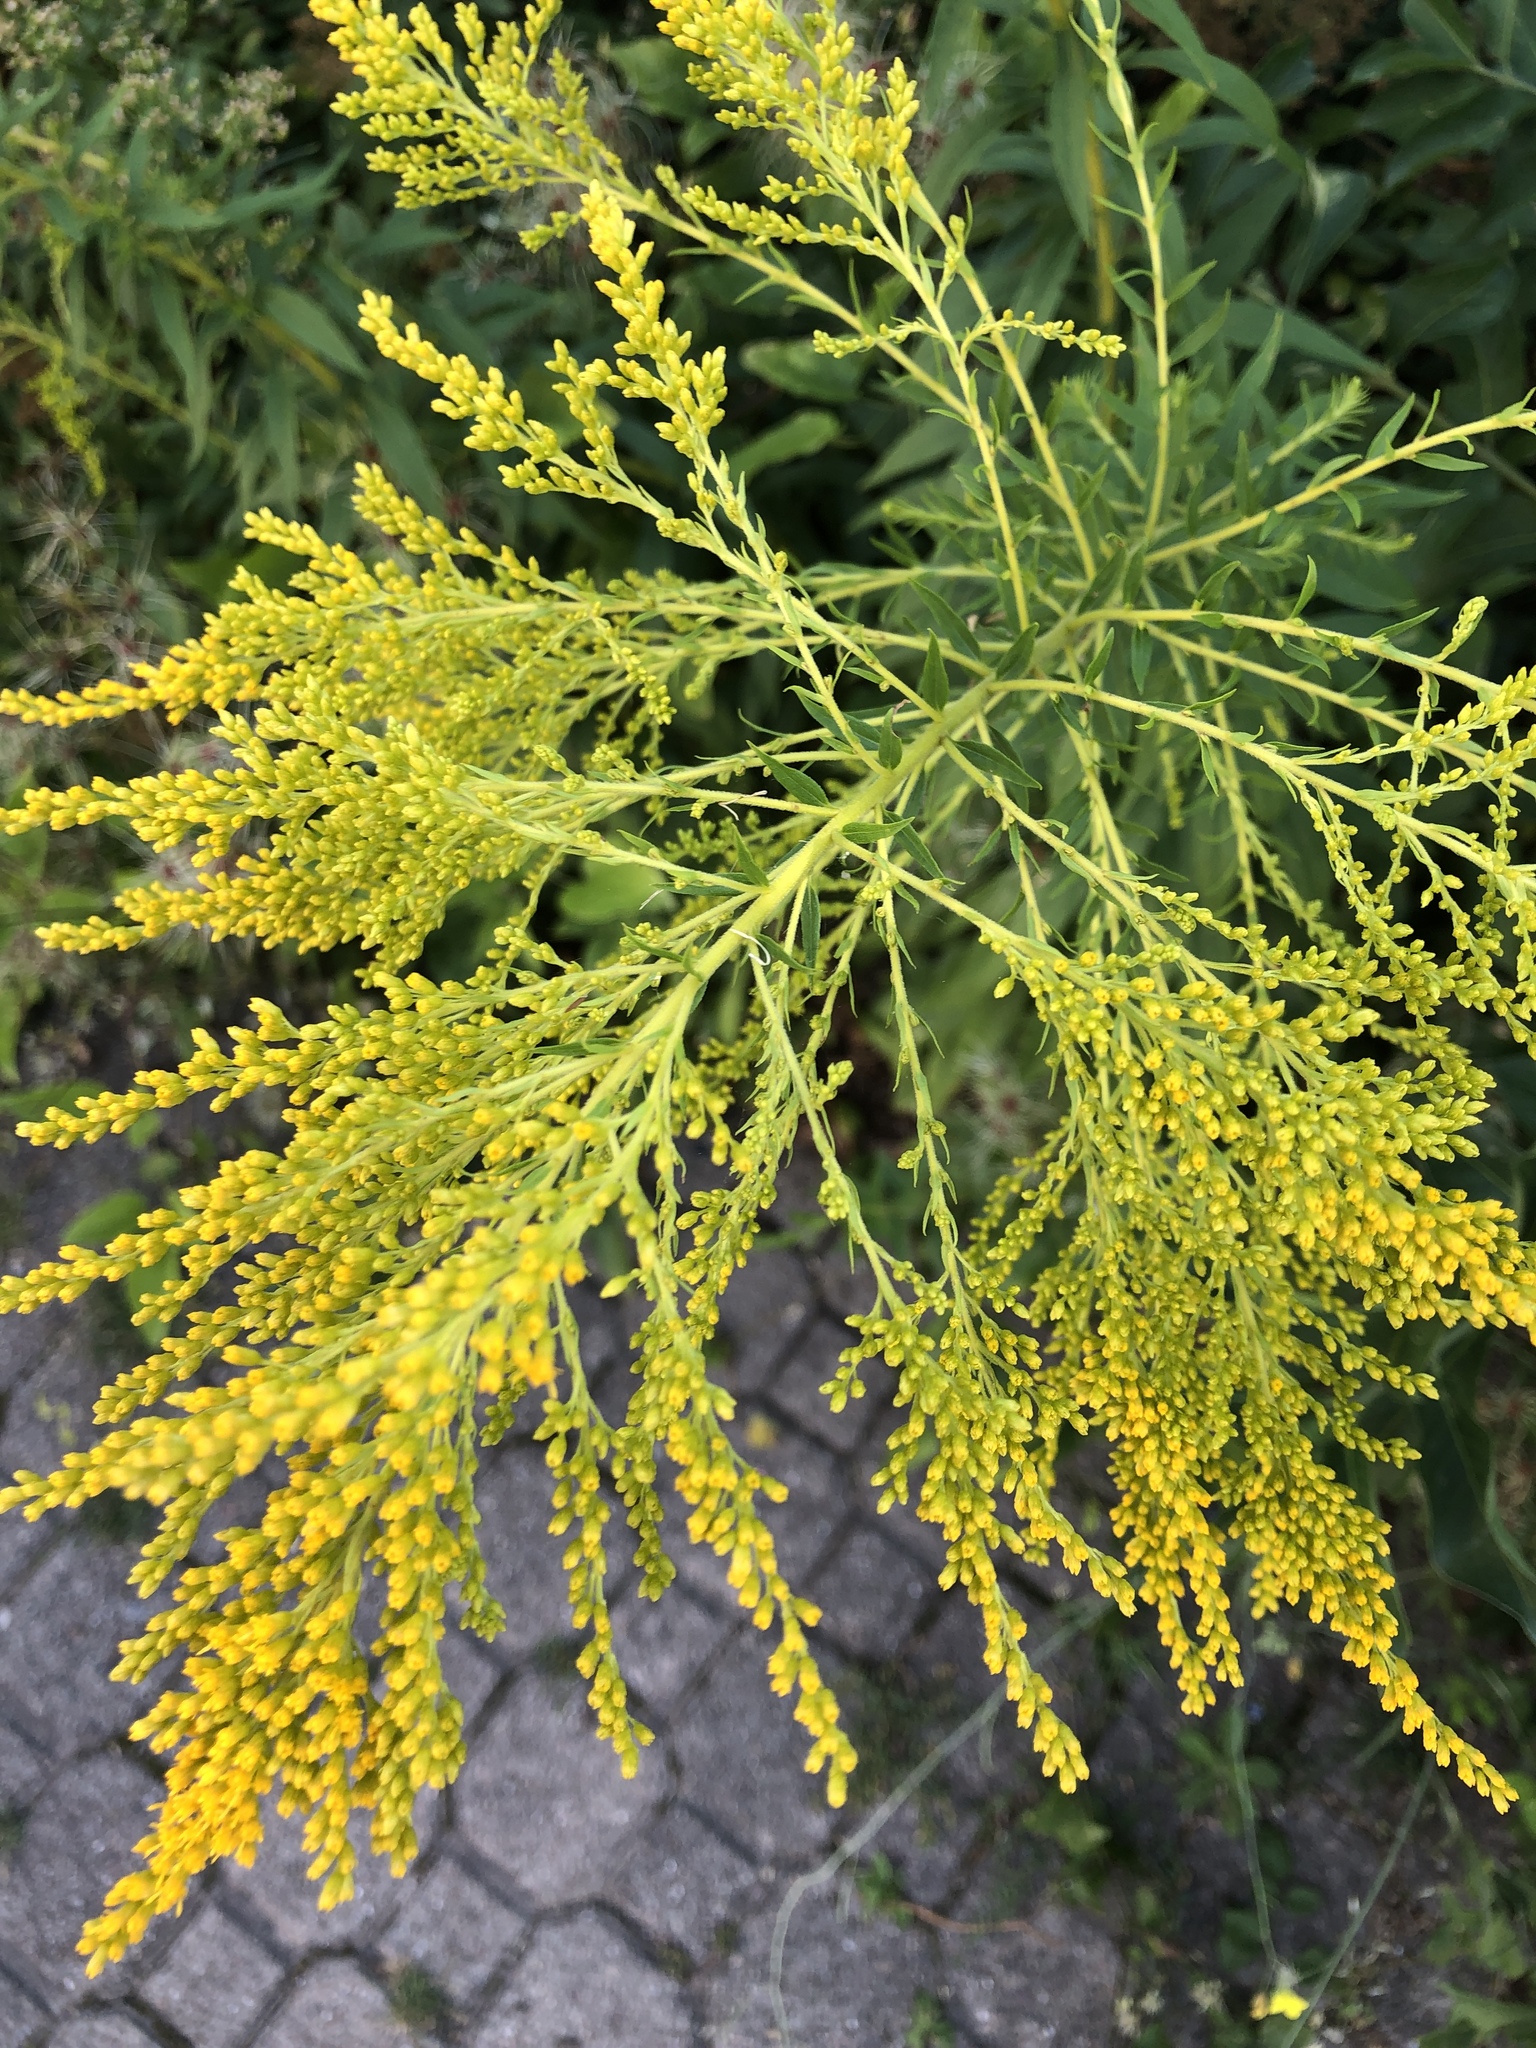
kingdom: Plantae
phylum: Tracheophyta
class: Magnoliopsida
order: Asterales
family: Asteraceae
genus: Solidago
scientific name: Solidago canadensis
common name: Canada goldenrod
